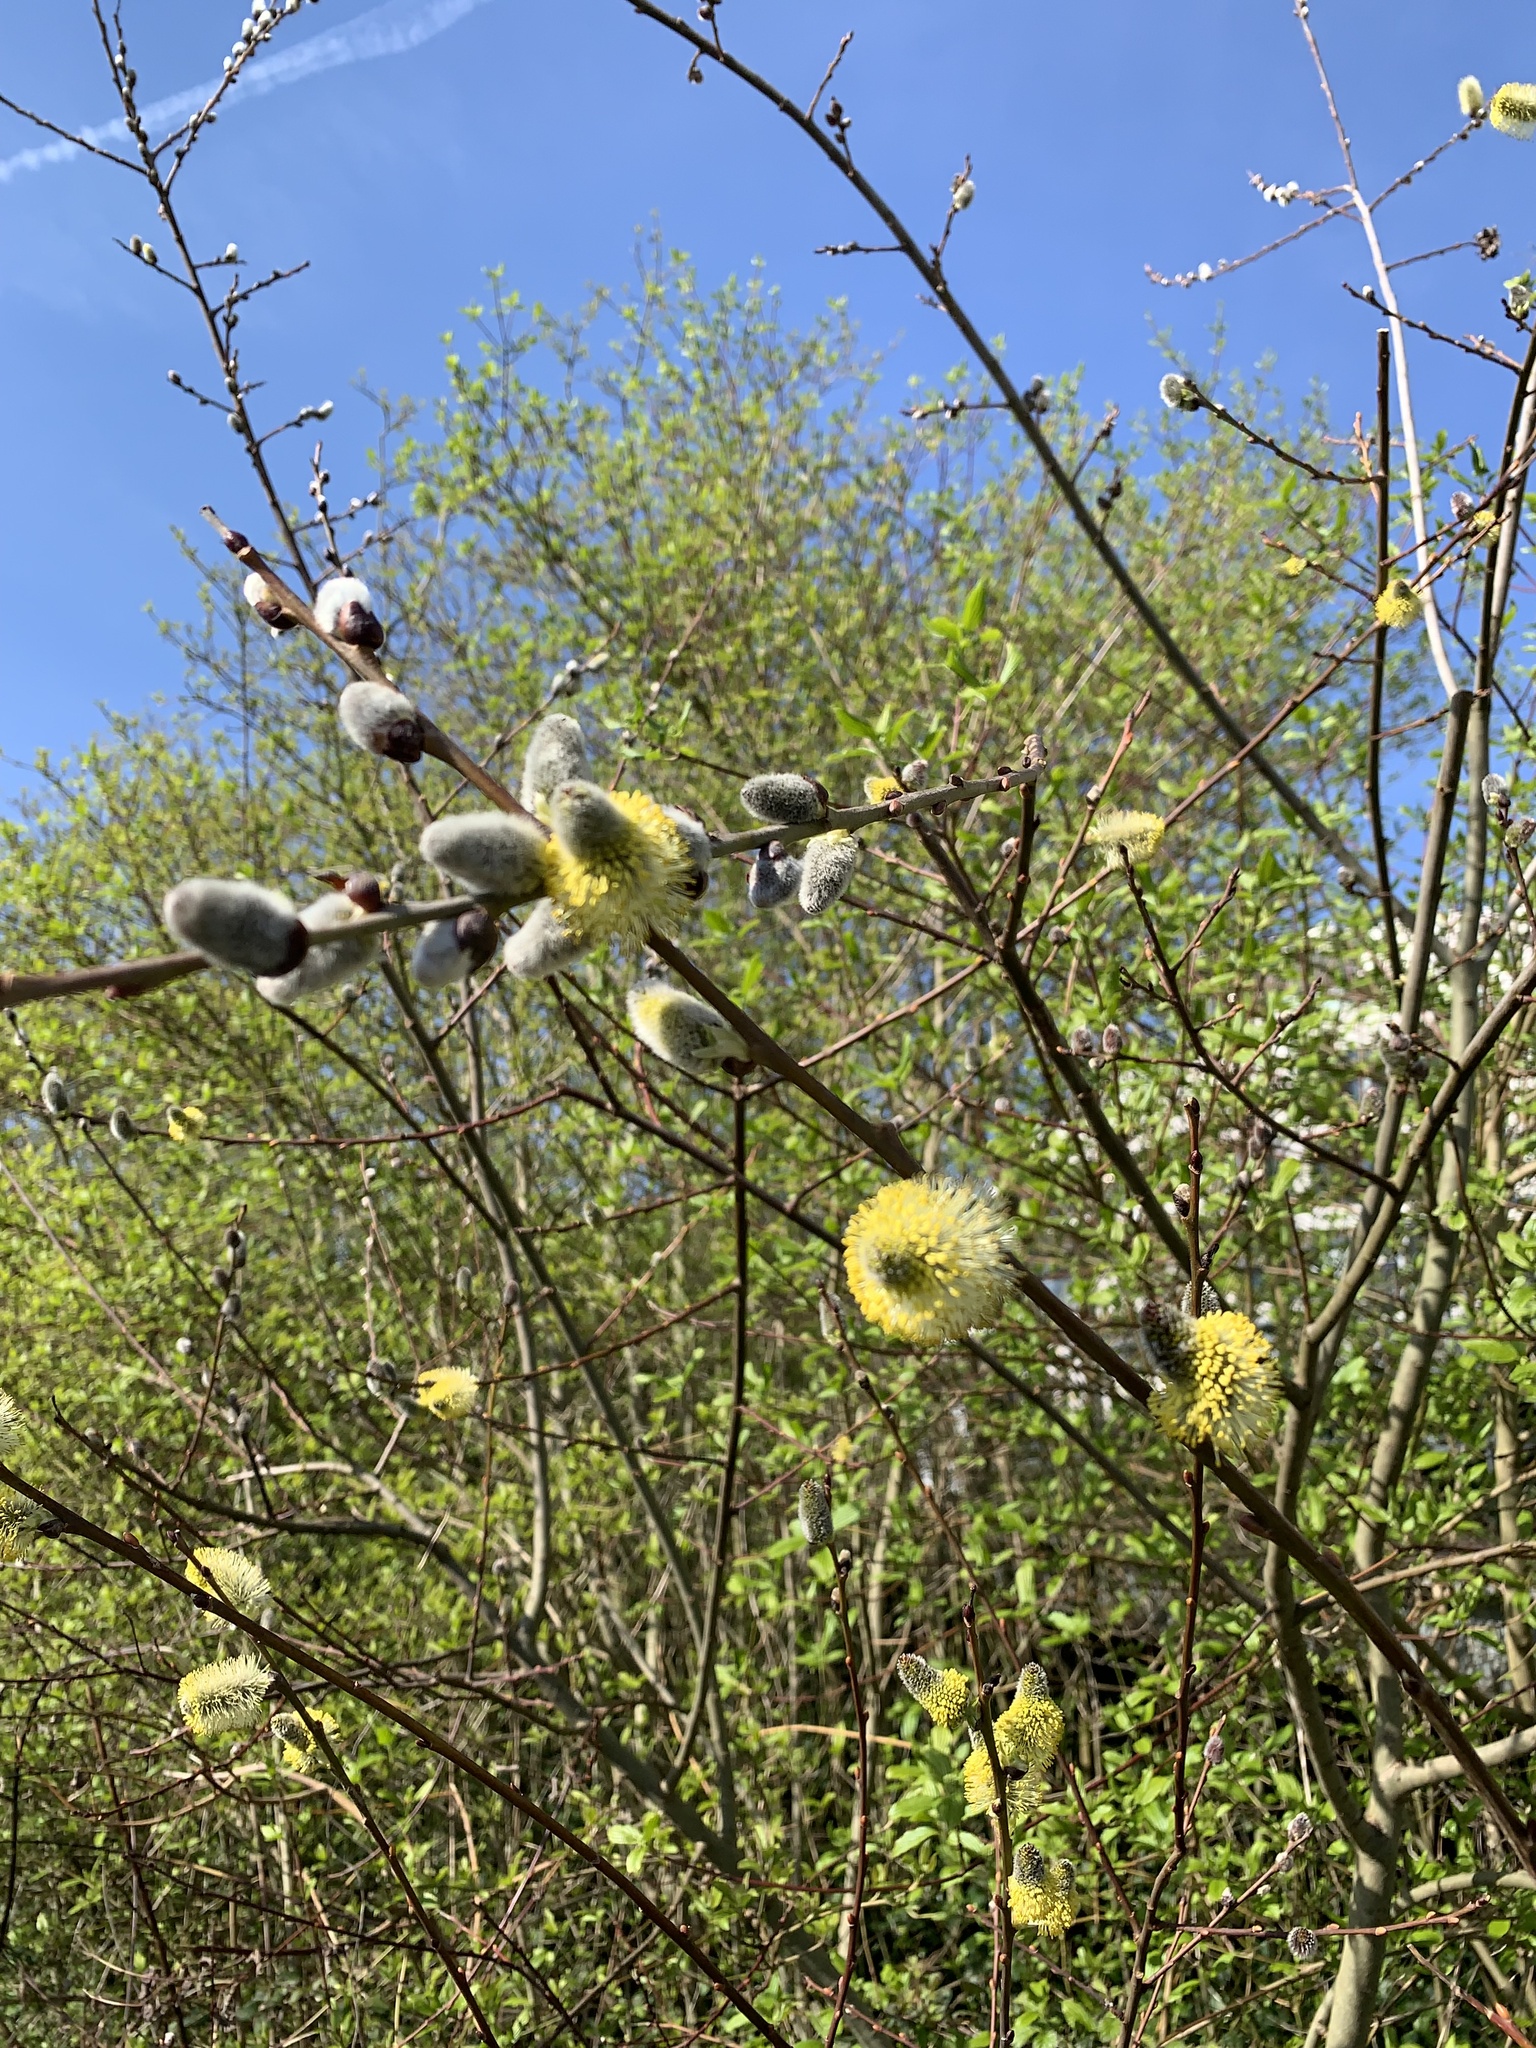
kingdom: Plantae
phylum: Tracheophyta
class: Magnoliopsida
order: Malpighiales
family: Salicaceae
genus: Salix
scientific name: Salix caprea
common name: Goat willow
